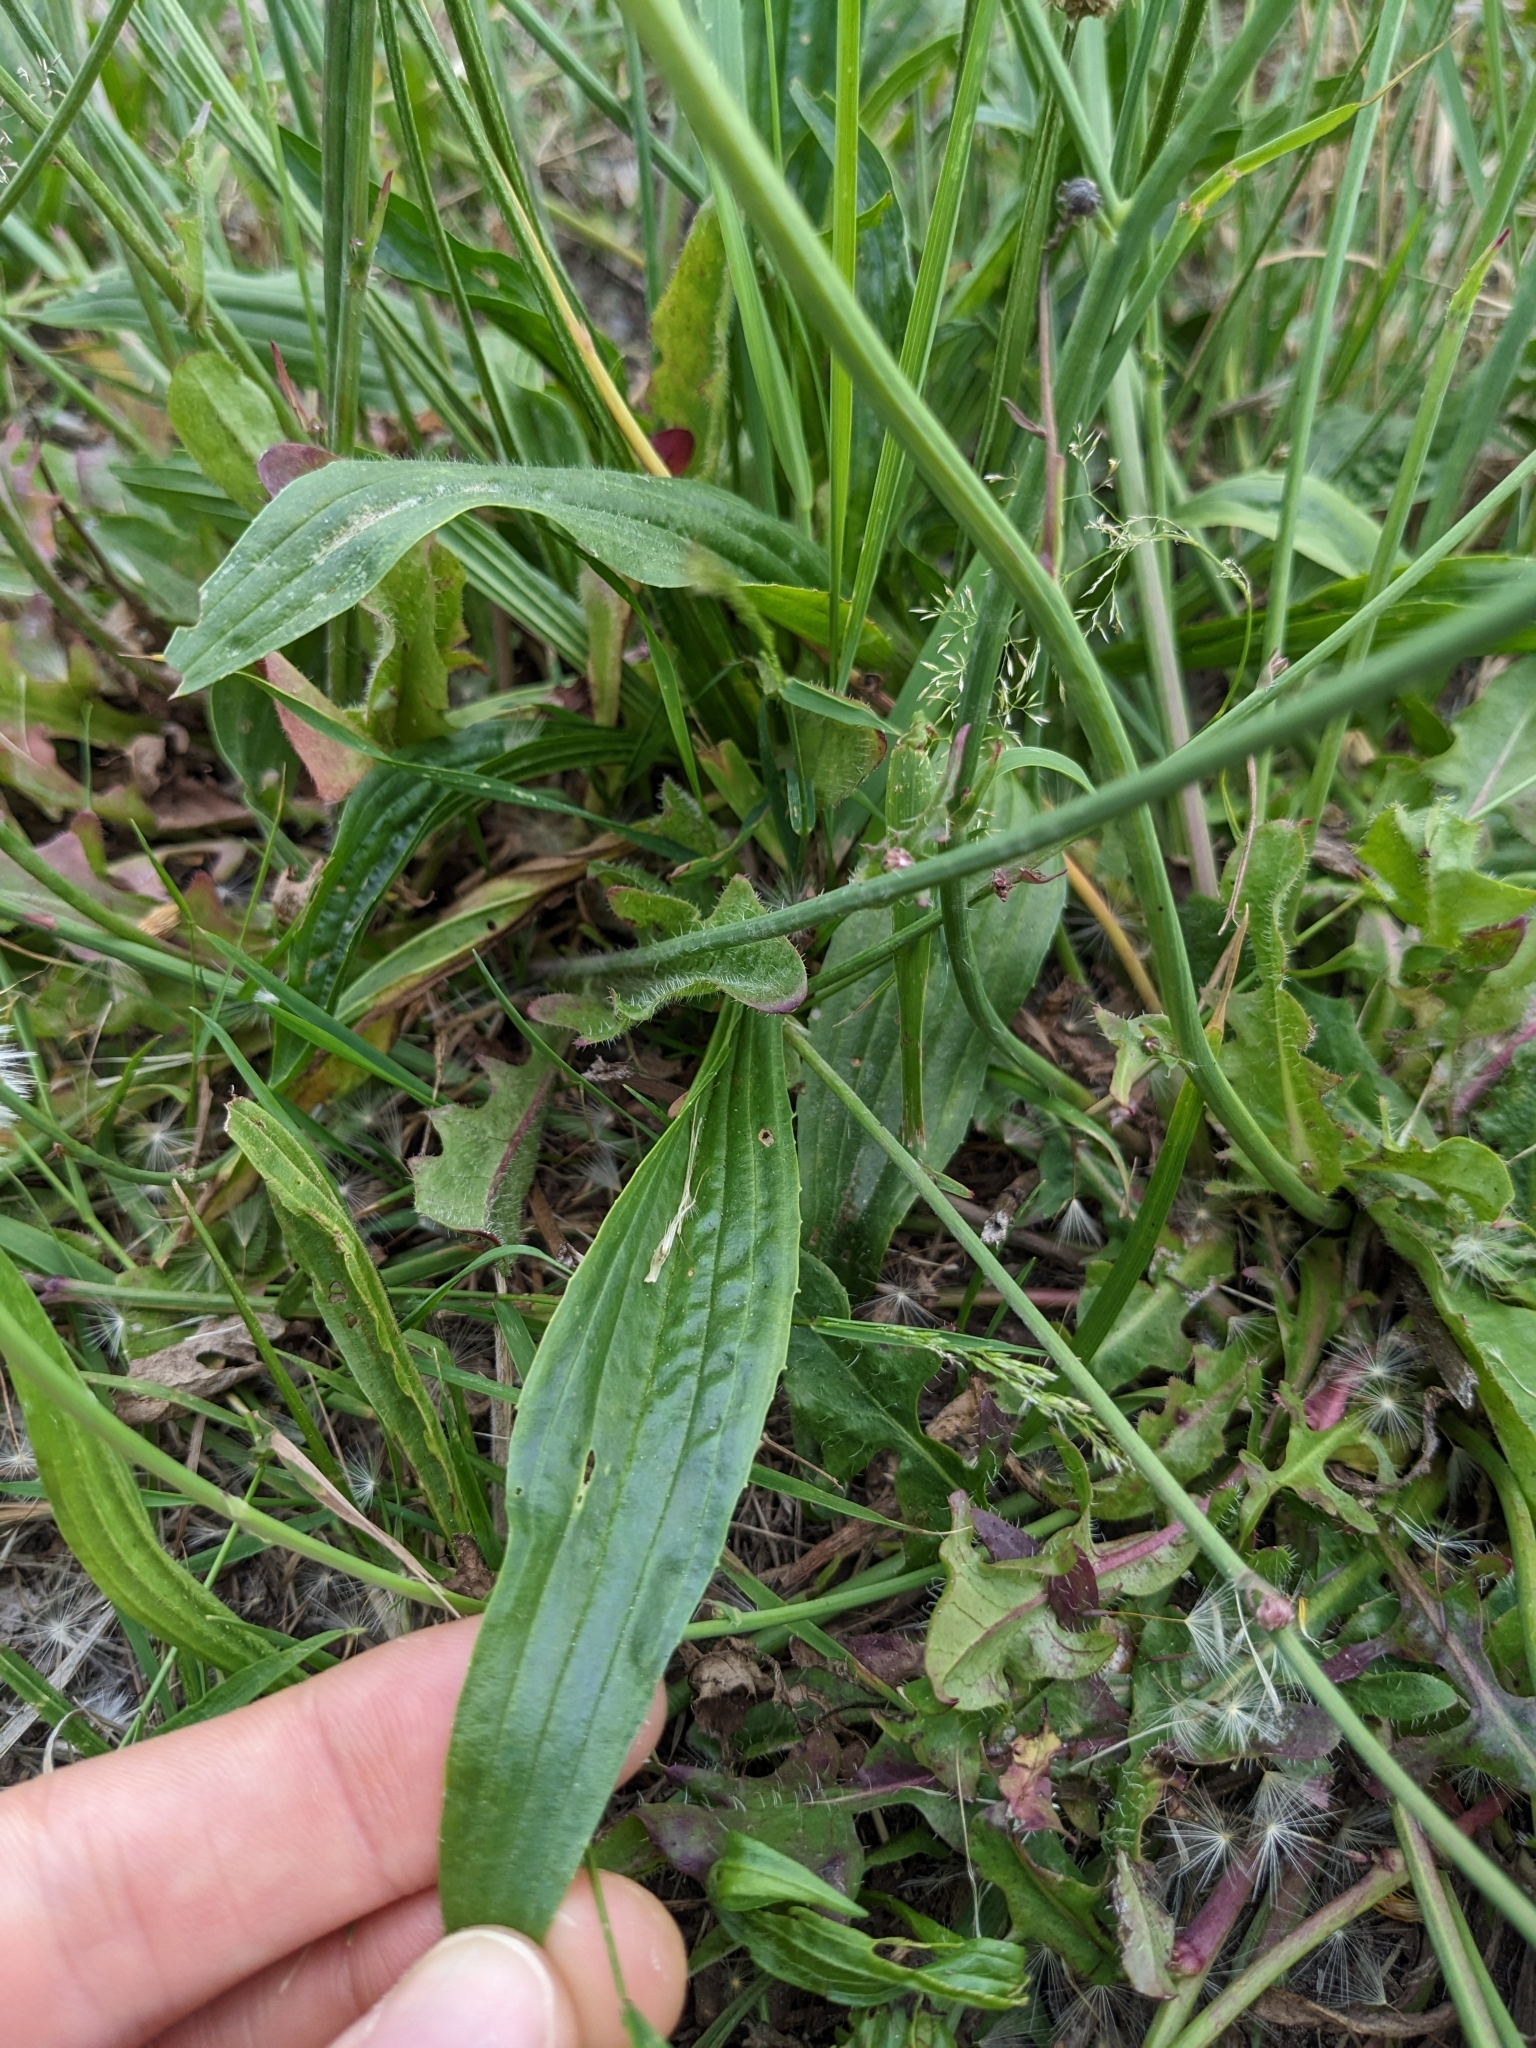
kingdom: Plantae
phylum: Tracheophyta
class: Magnoliopsida
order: Lamiales
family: Plantaginaceae
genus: Plantago
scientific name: Plantago lanceolata
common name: Ribwort plantain
